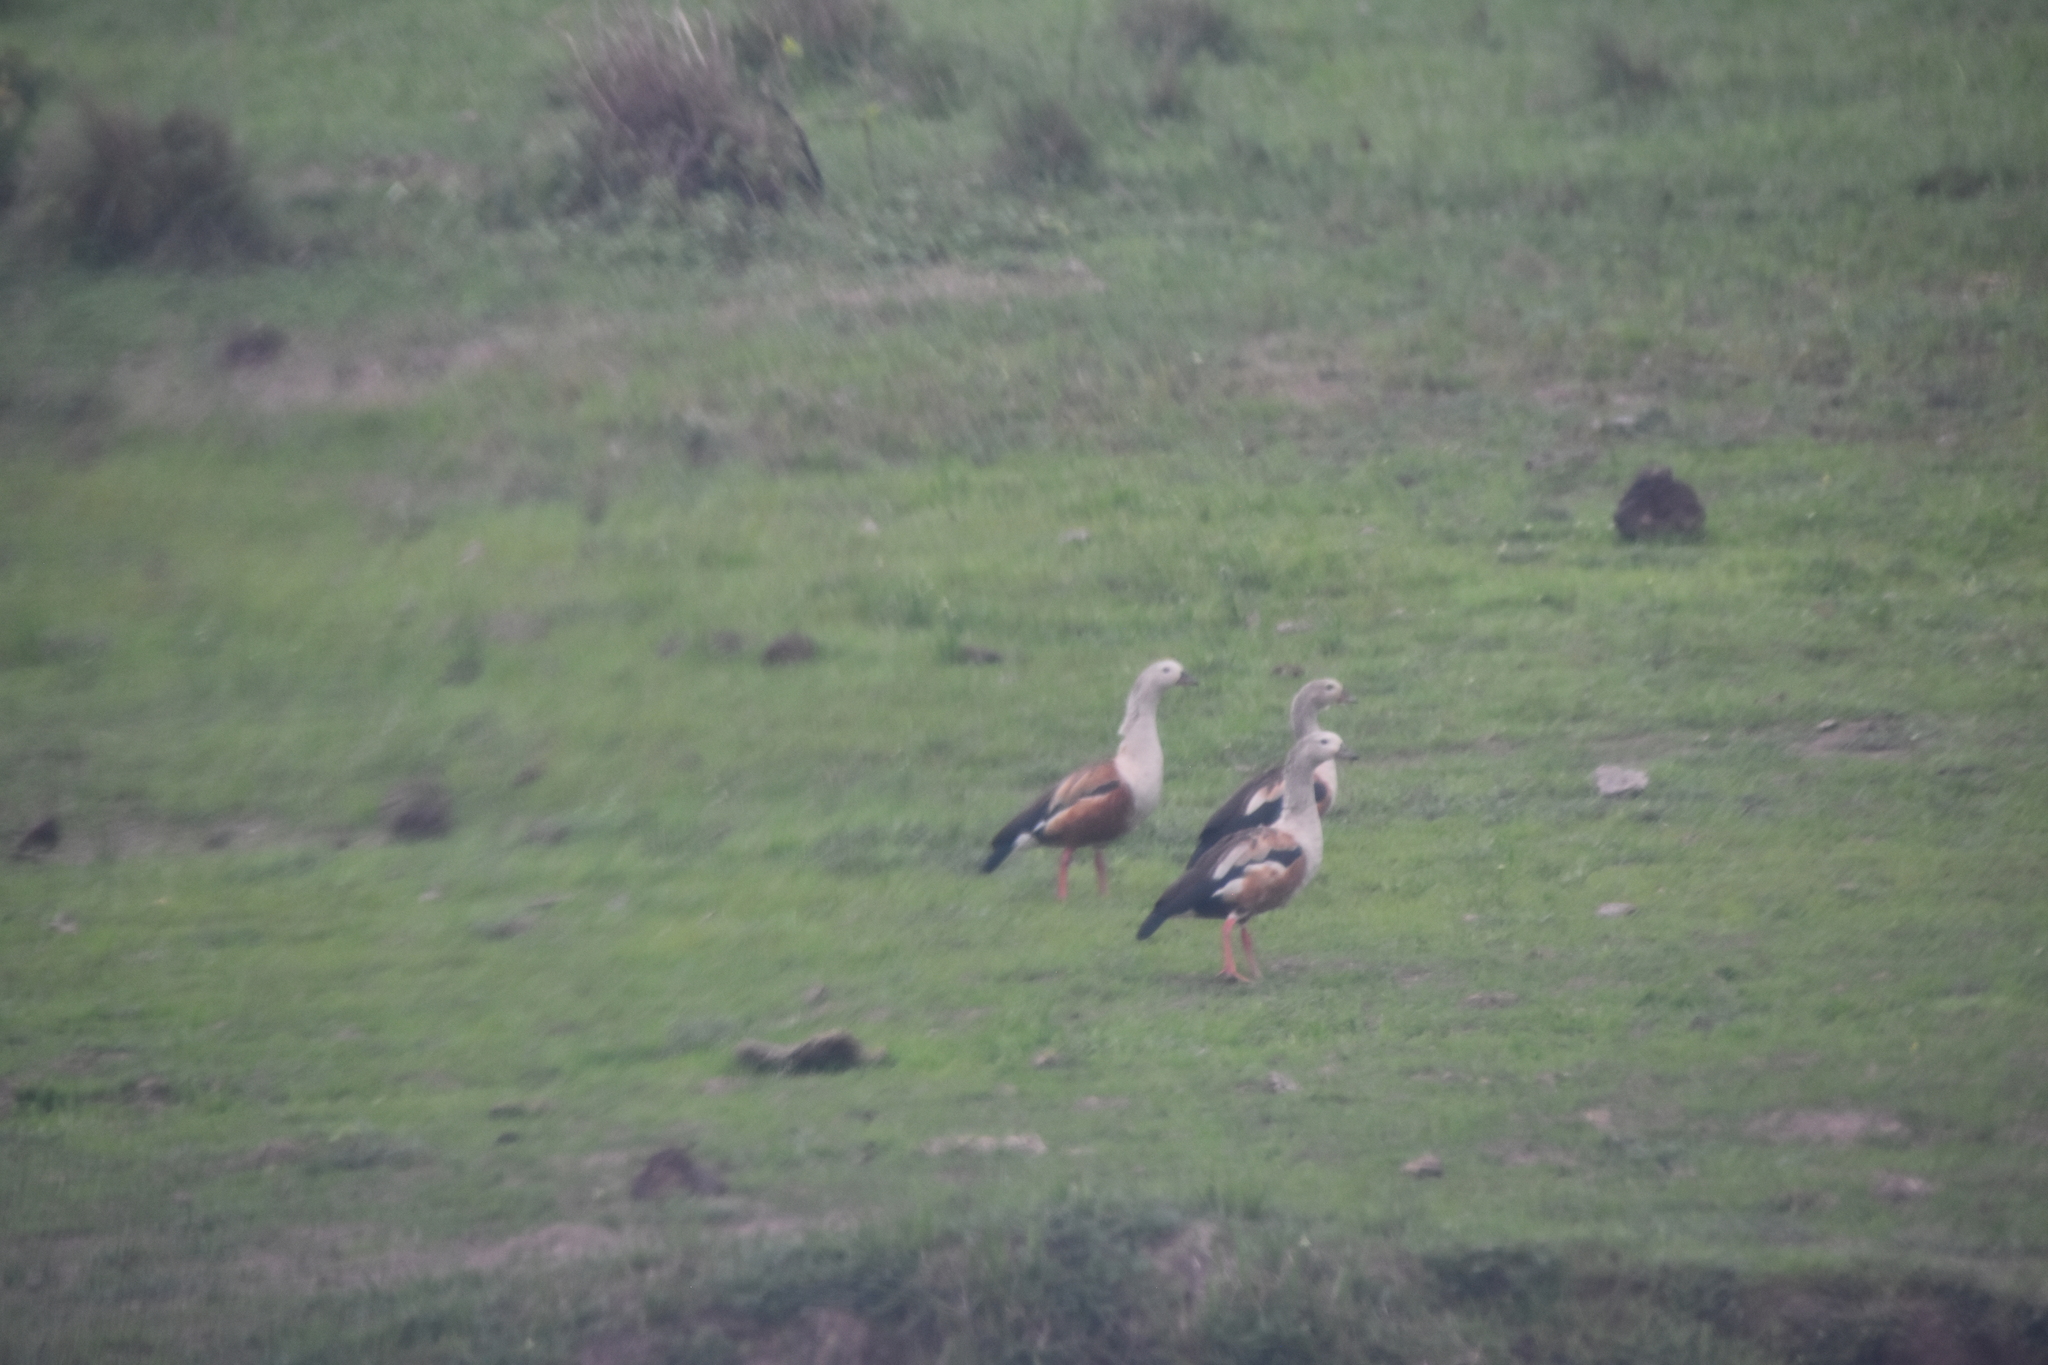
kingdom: Animalia
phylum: Chordata
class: Aves
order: Anseriformes
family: Anatidae
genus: Oressochen
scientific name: Oressochen jubatus
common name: Orinoco goose
